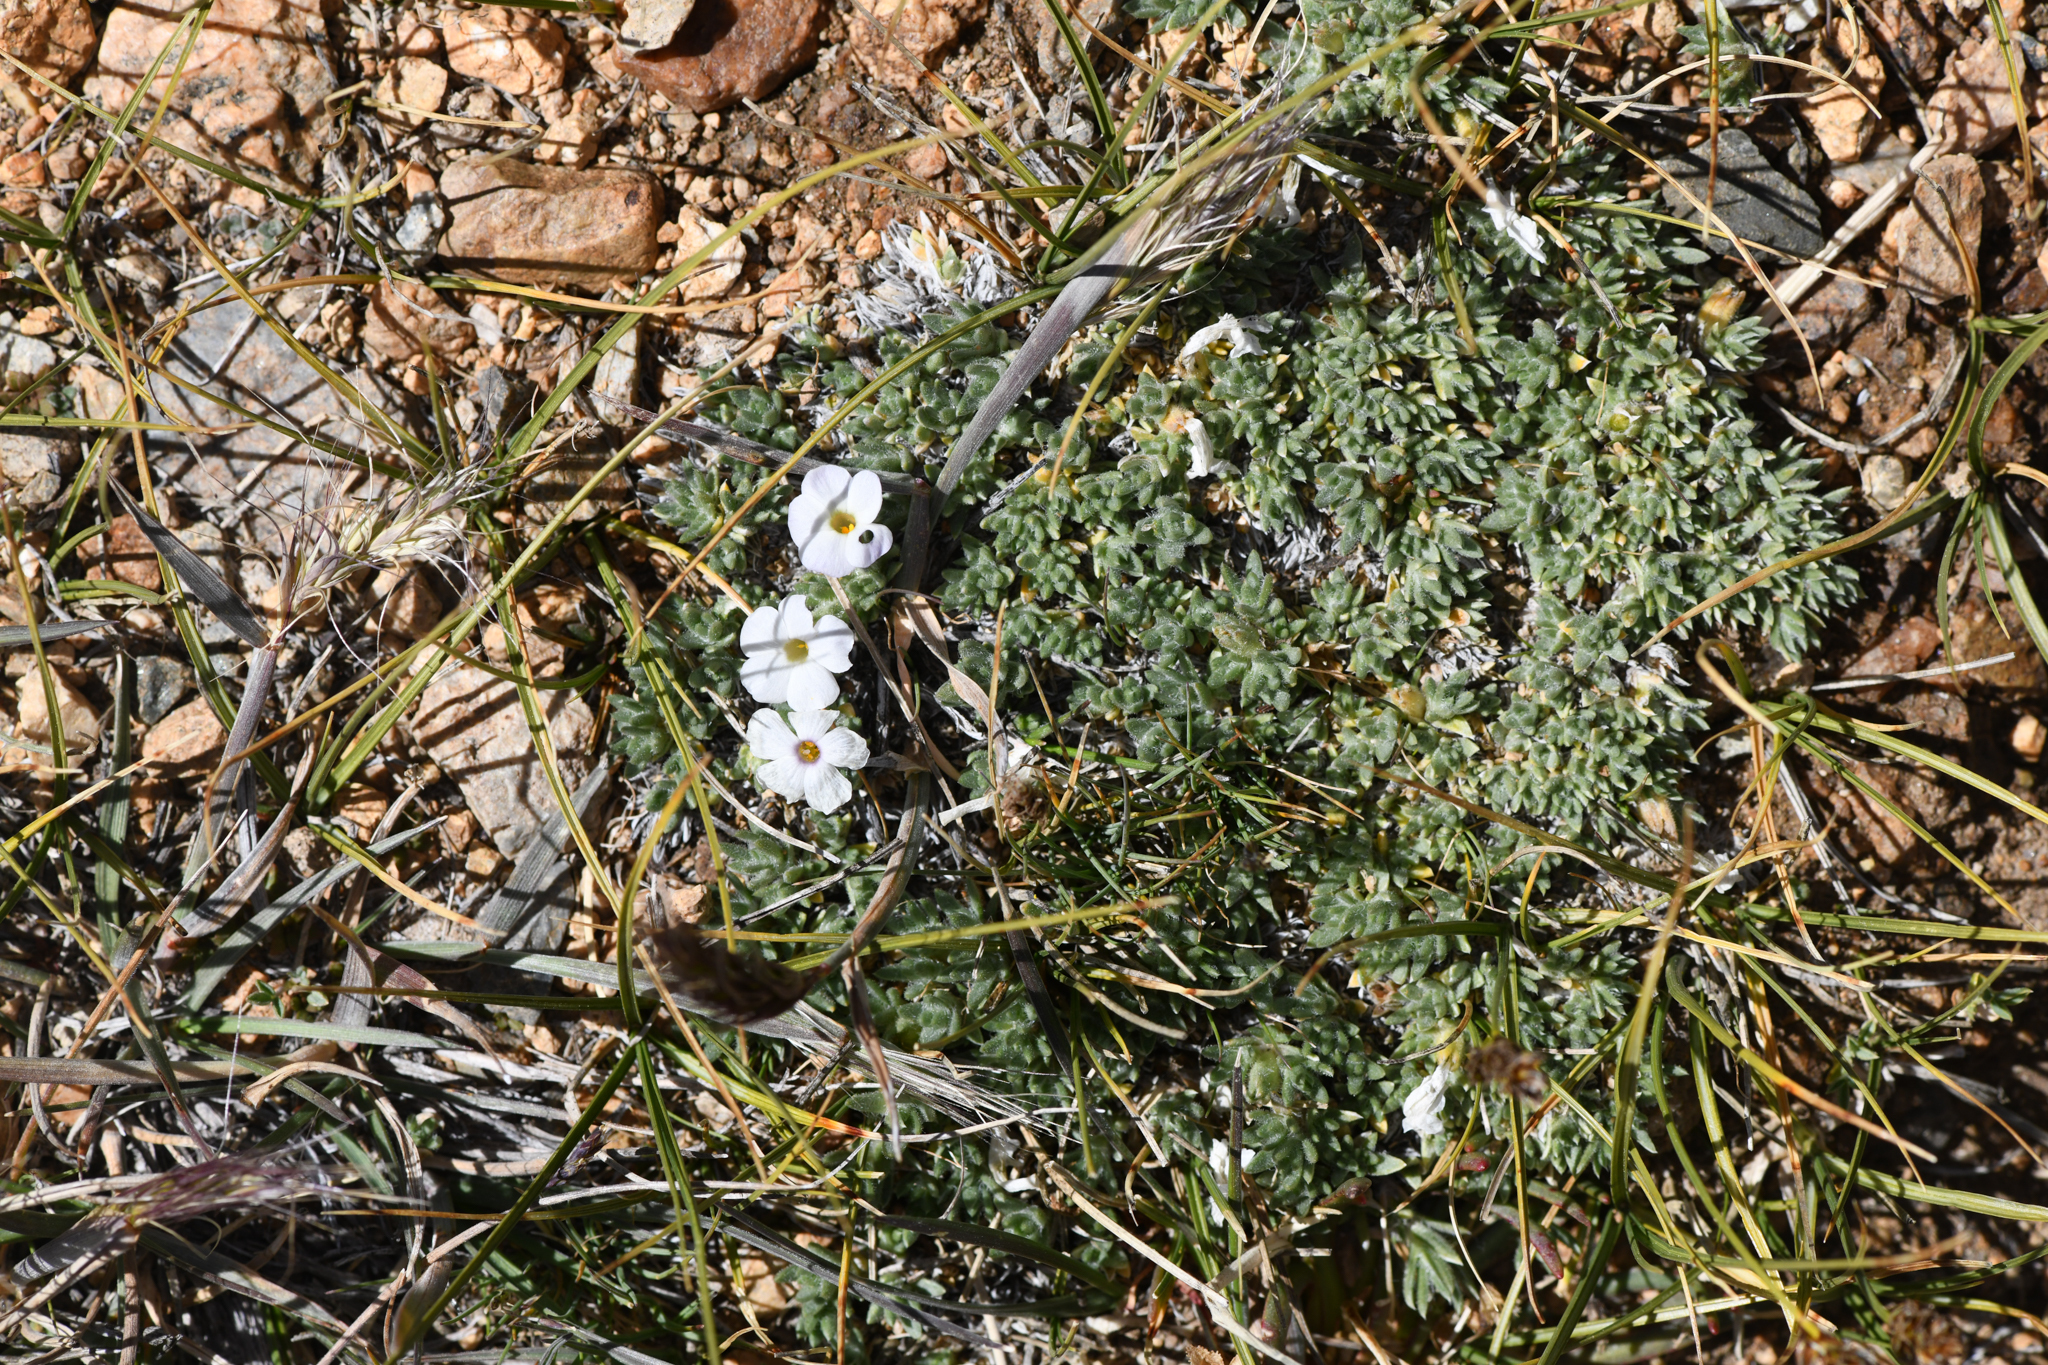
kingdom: Plantae
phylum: Tracheophyta
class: Magnoliopsida
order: Ericales
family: Polemoniaceae
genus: Phlox
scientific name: Phlox condensata
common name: Compact phlox
